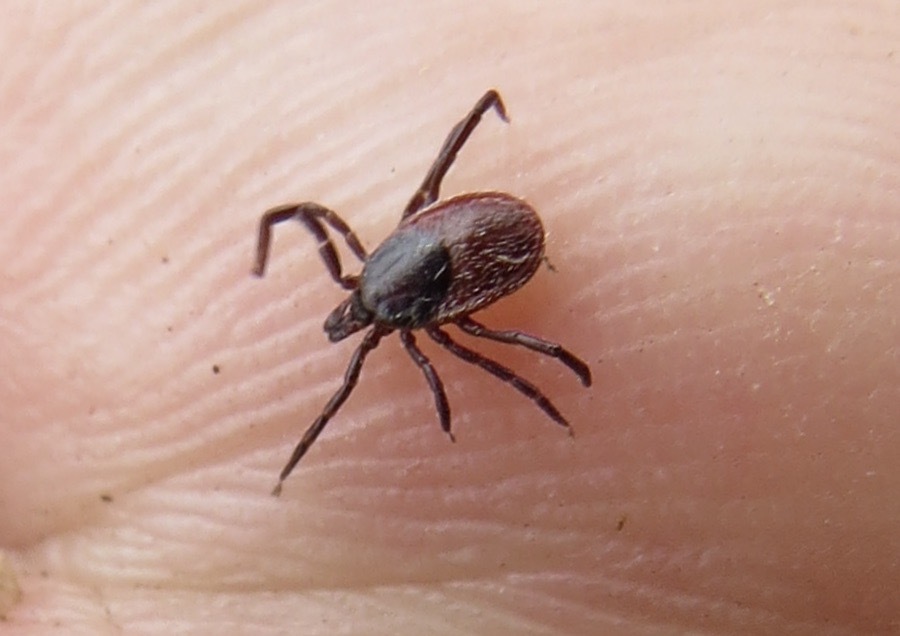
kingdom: Animalia
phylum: Arthropoda
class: Arachnida
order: Ixodida
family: Ixodidae
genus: Ixodes
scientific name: Ixodes pacificus
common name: California black-legged tick
